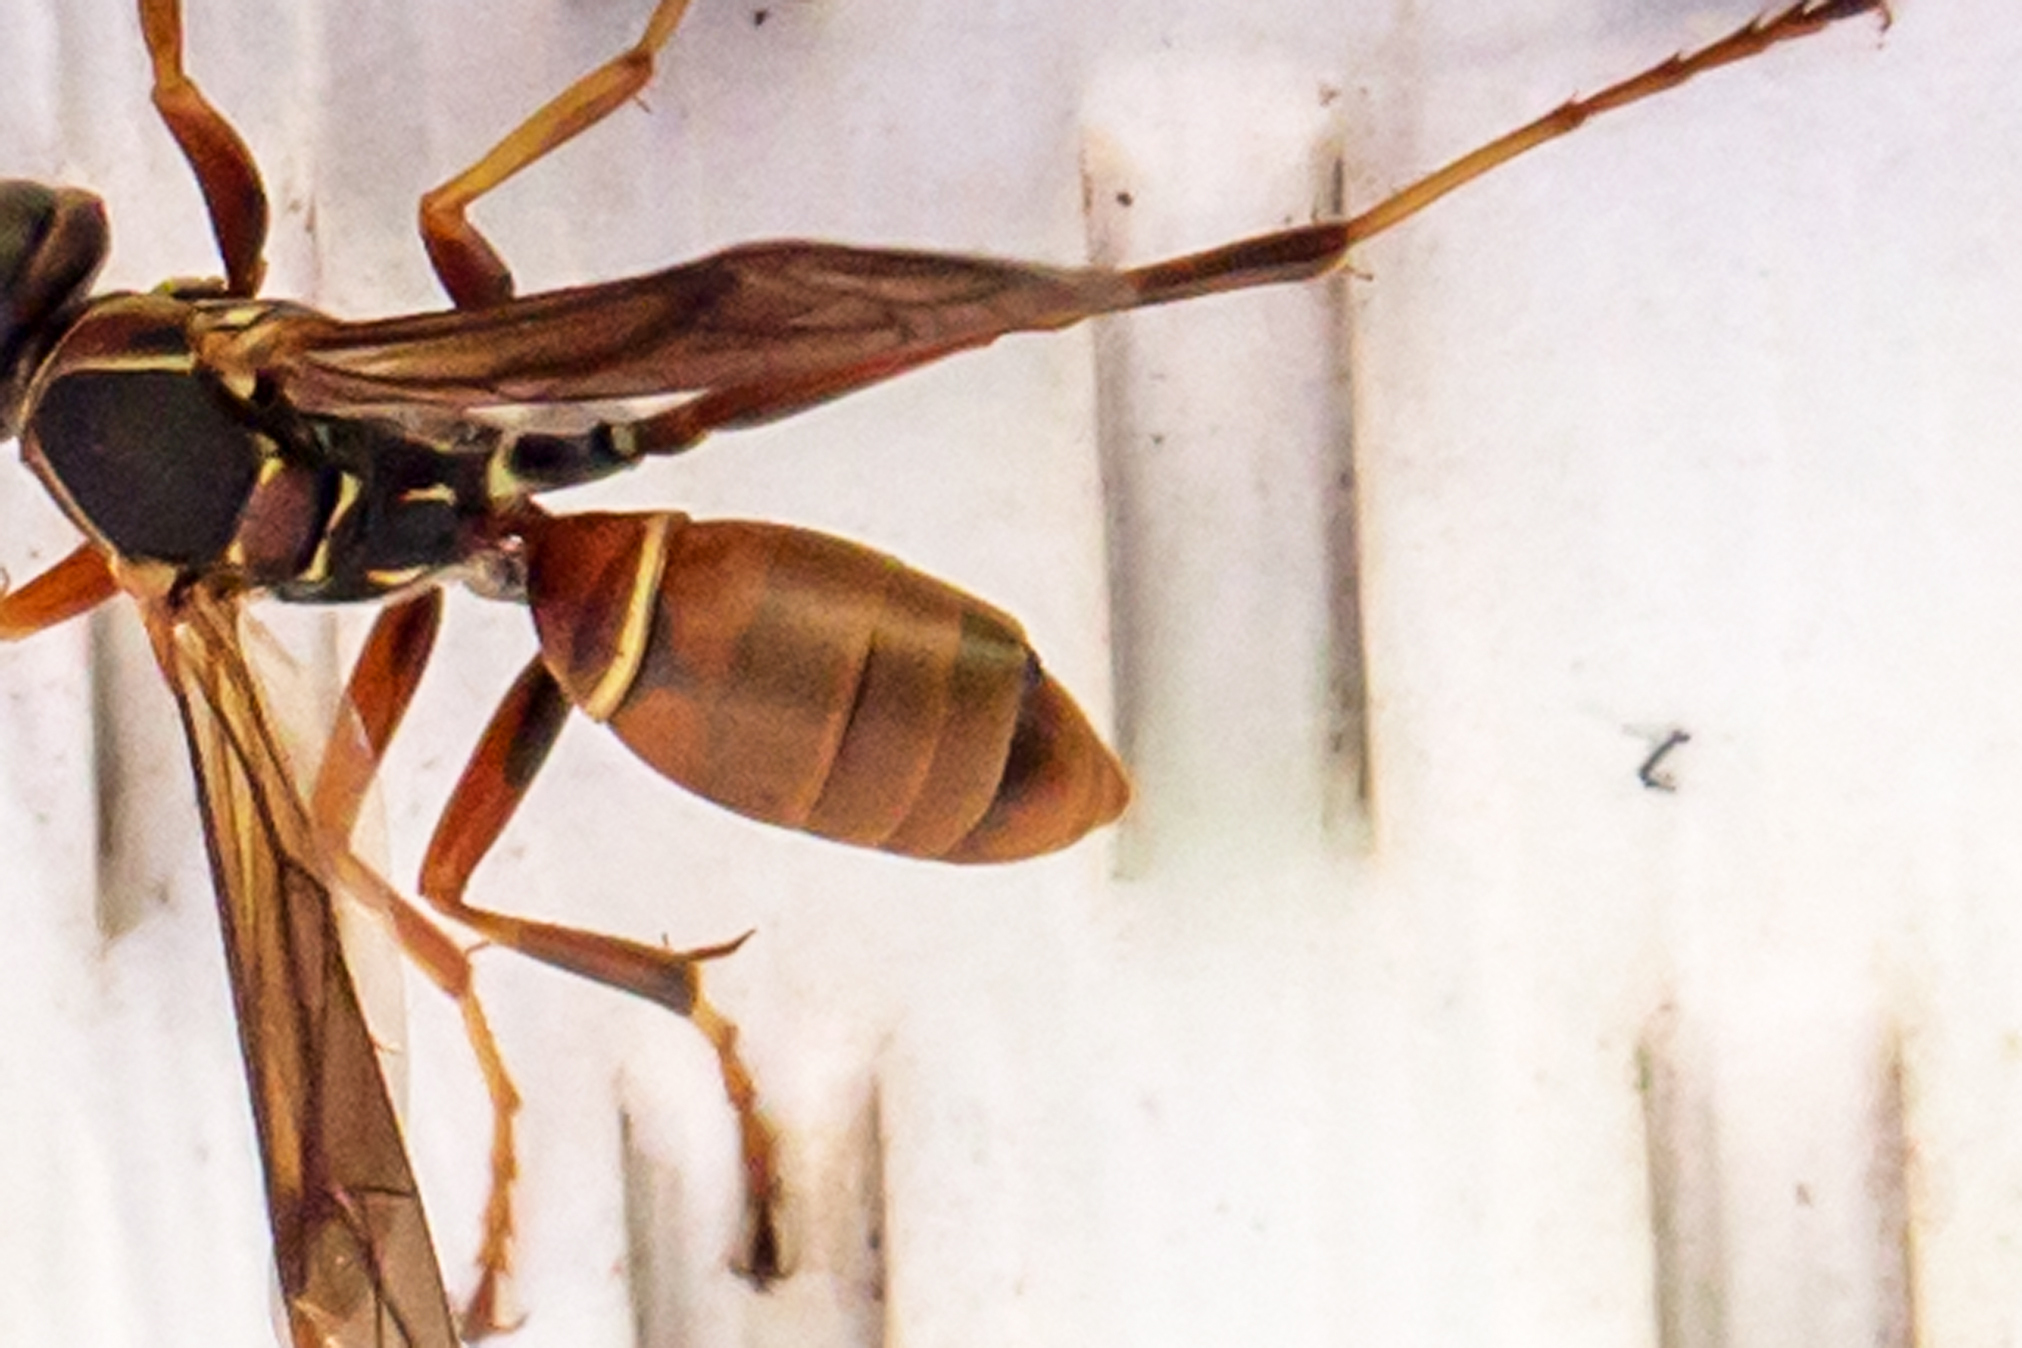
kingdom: Animalia
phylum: Arthropoda
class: Insecta
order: Strepsiptera
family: Xenidae
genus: Xenos
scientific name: Xenos pecki
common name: Twisted wing parasite
